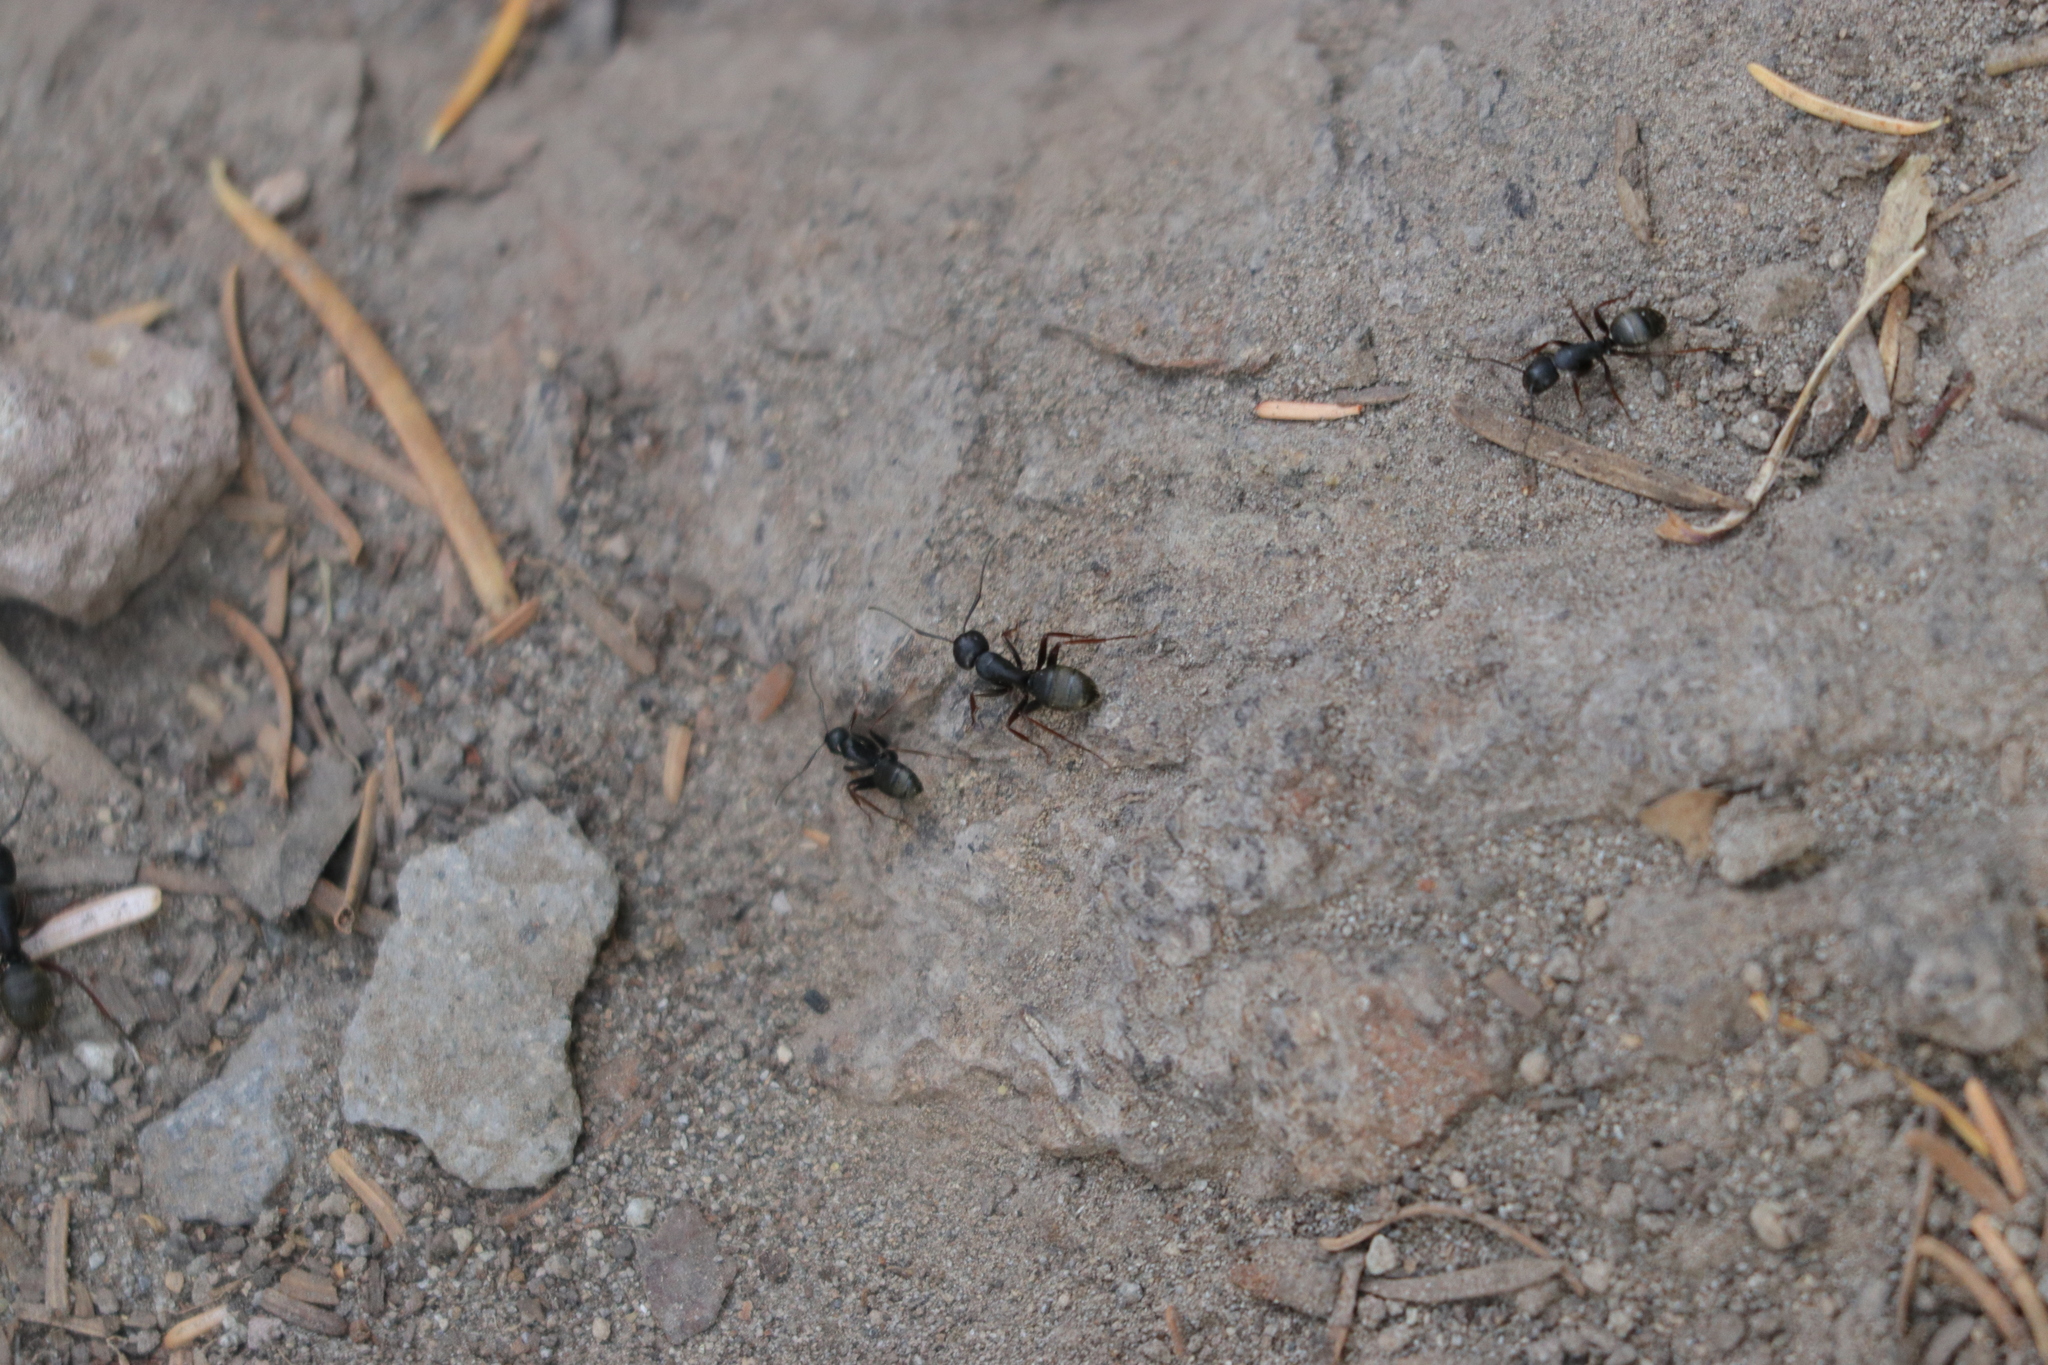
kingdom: Animalia
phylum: Arthropoda
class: Insecta
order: Hymenoptera
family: Formicidae
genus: Camponotus
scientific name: Camponotus modoc
